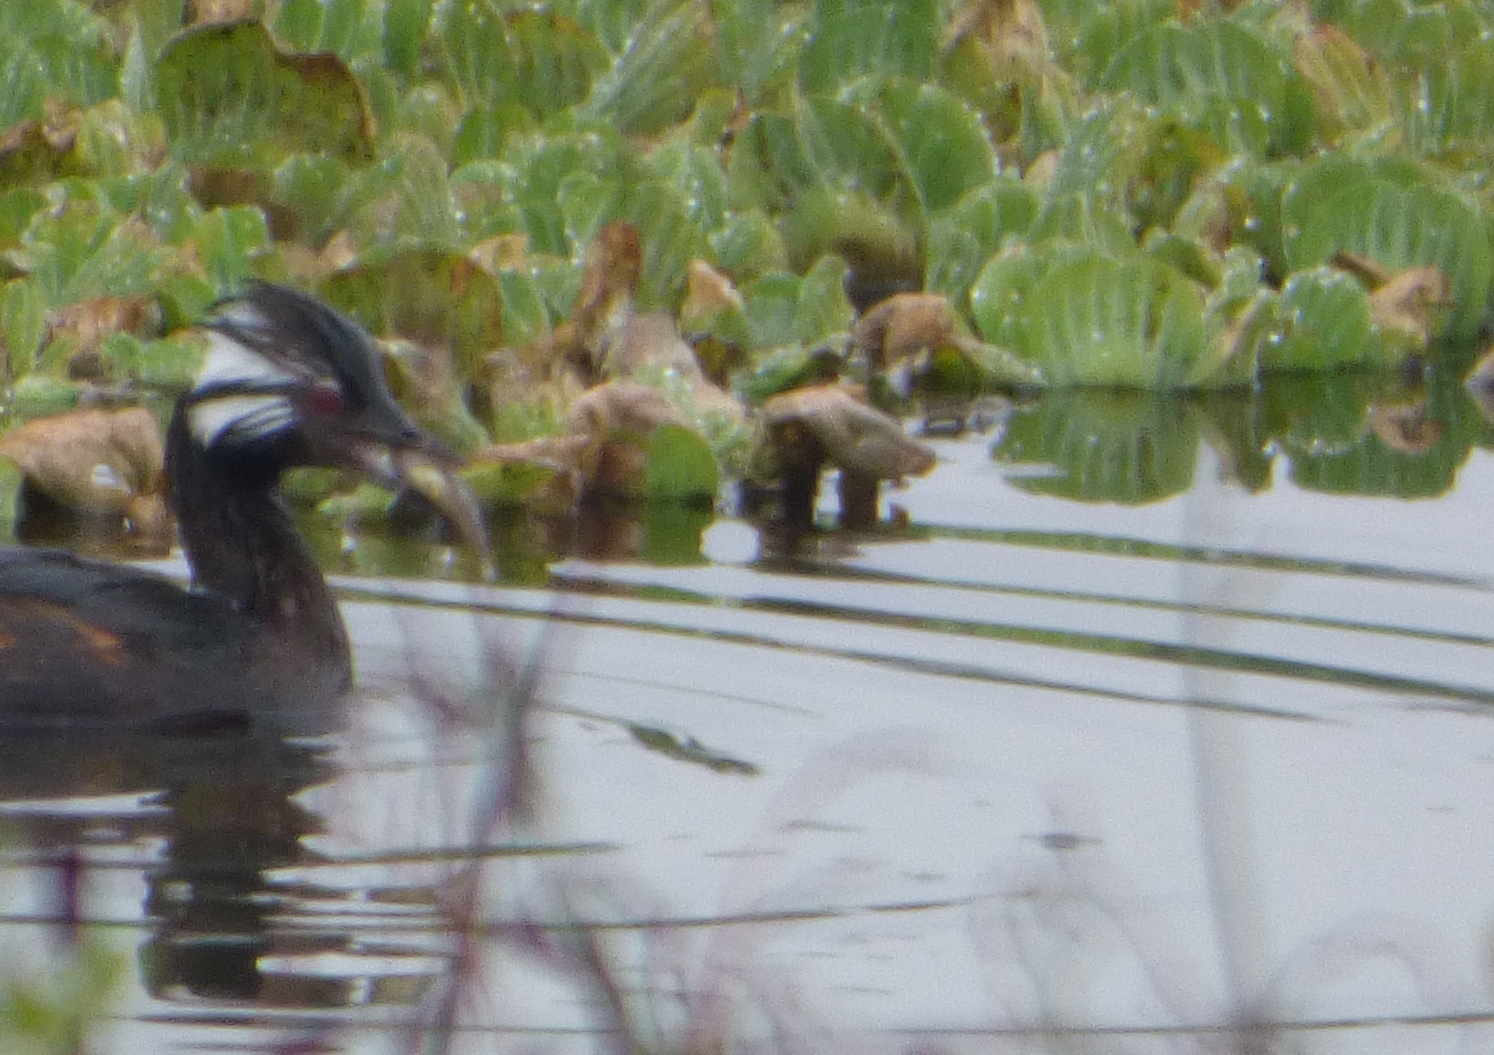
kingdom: Animalia
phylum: Chordata
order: Siluriformes
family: Callichthyidae
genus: Corydoras
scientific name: Corydoras paleatus
